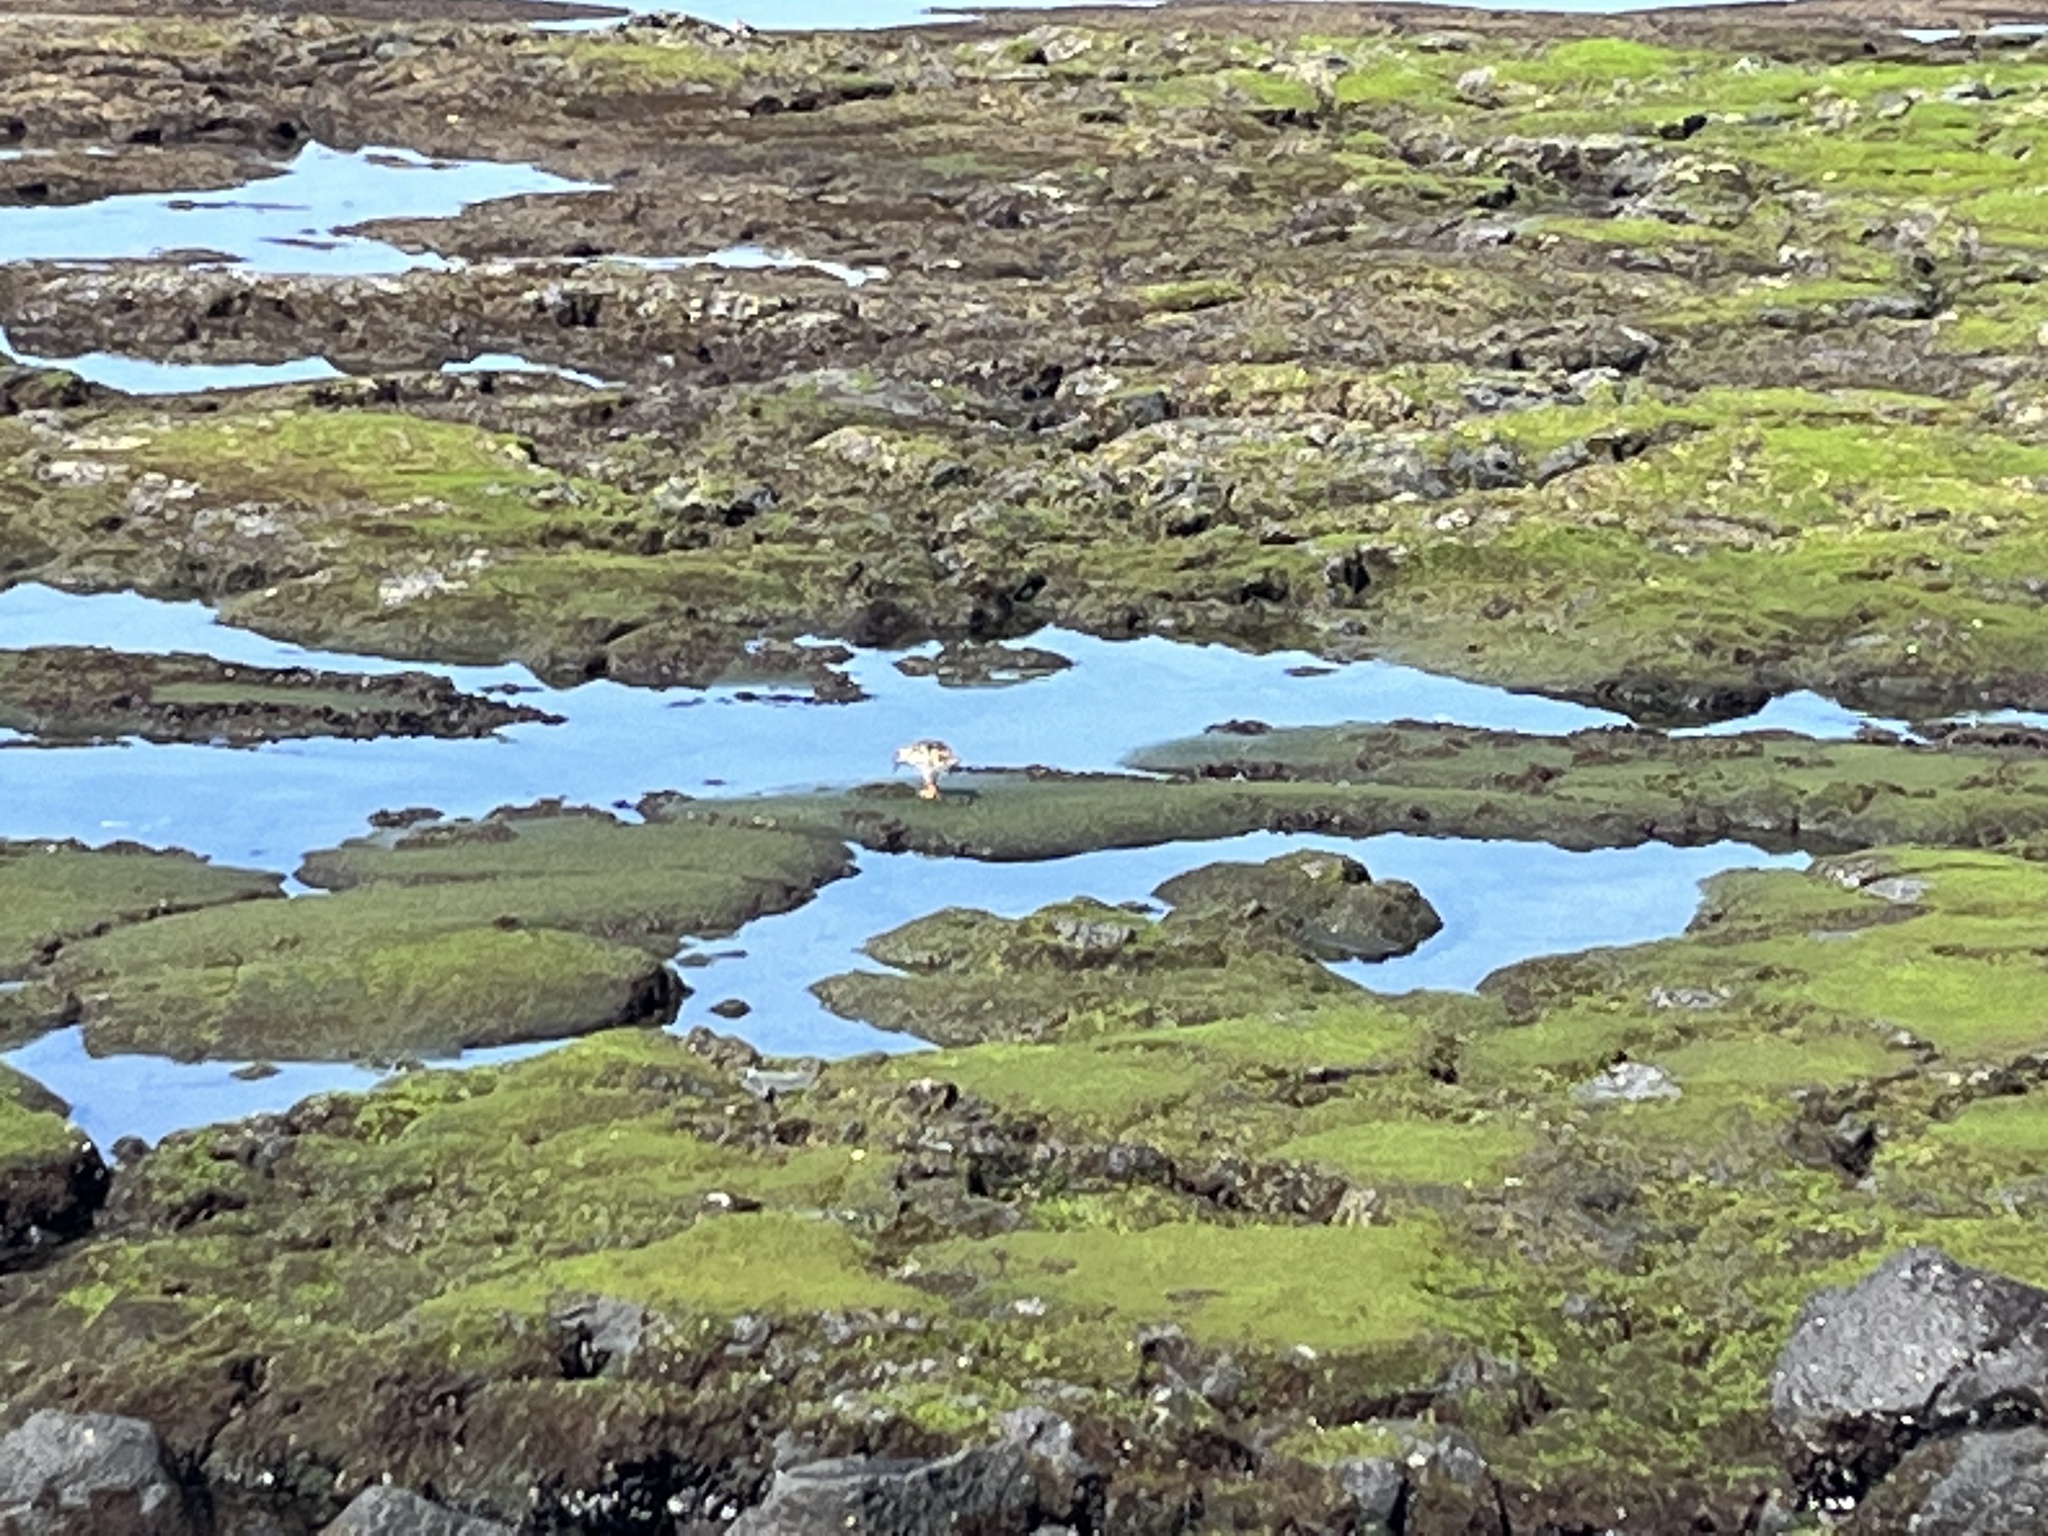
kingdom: Animalia
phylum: Chordata
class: Aves
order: Charadriiformes
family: Scolopacidae
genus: Arenaria
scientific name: Arenaria interpres
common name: Ruddy turnstone
